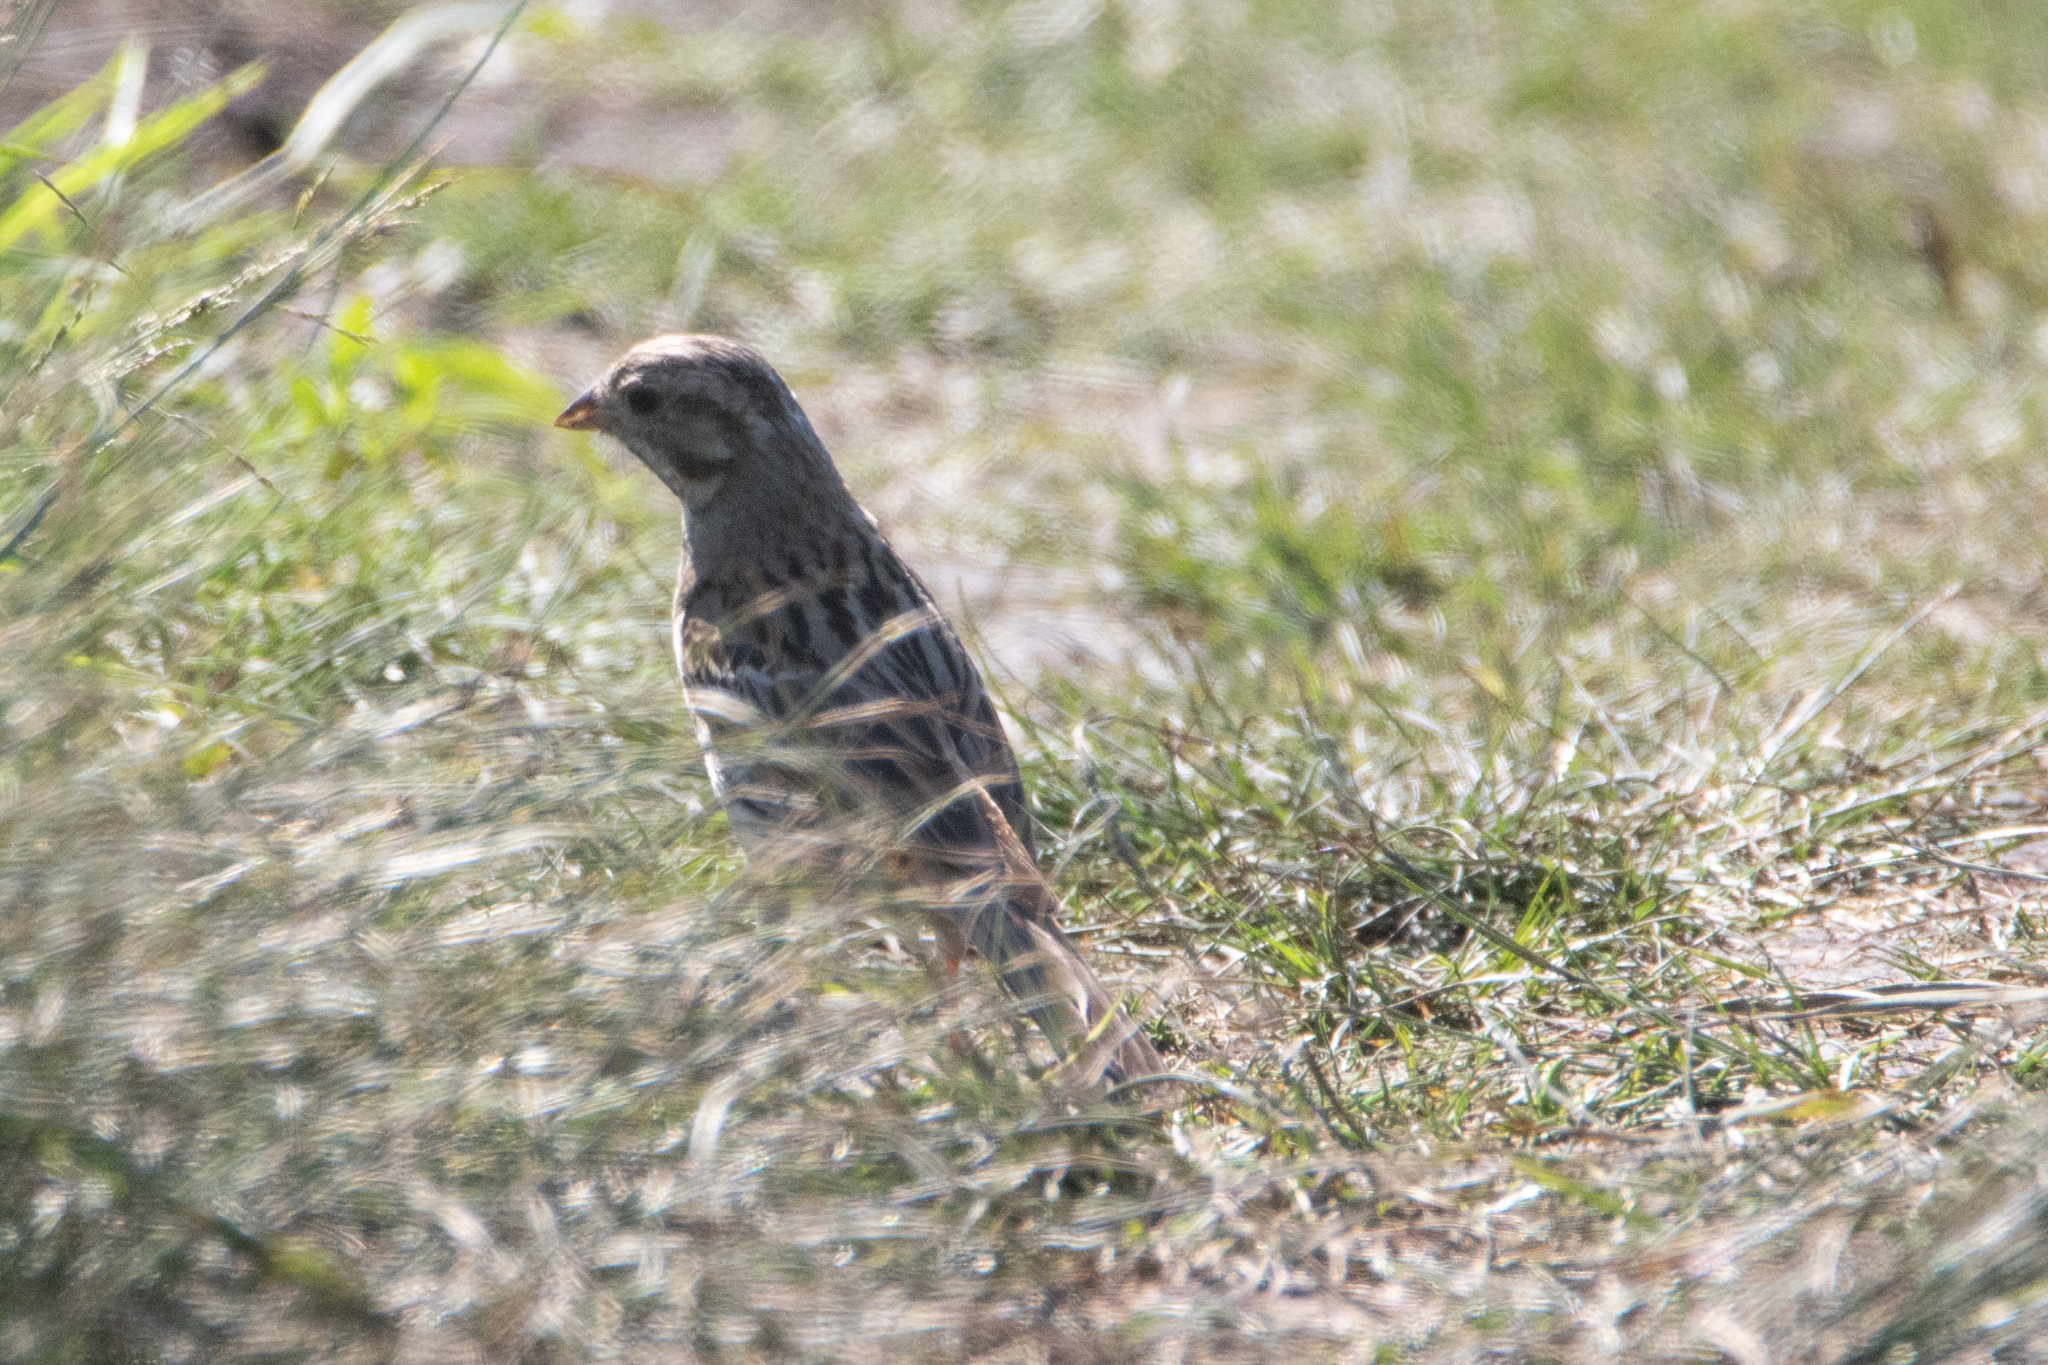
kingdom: Animalia
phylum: Chordata
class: Aves
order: Passeriformes
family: Emberizidae
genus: Emberiza
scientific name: Emberiza
